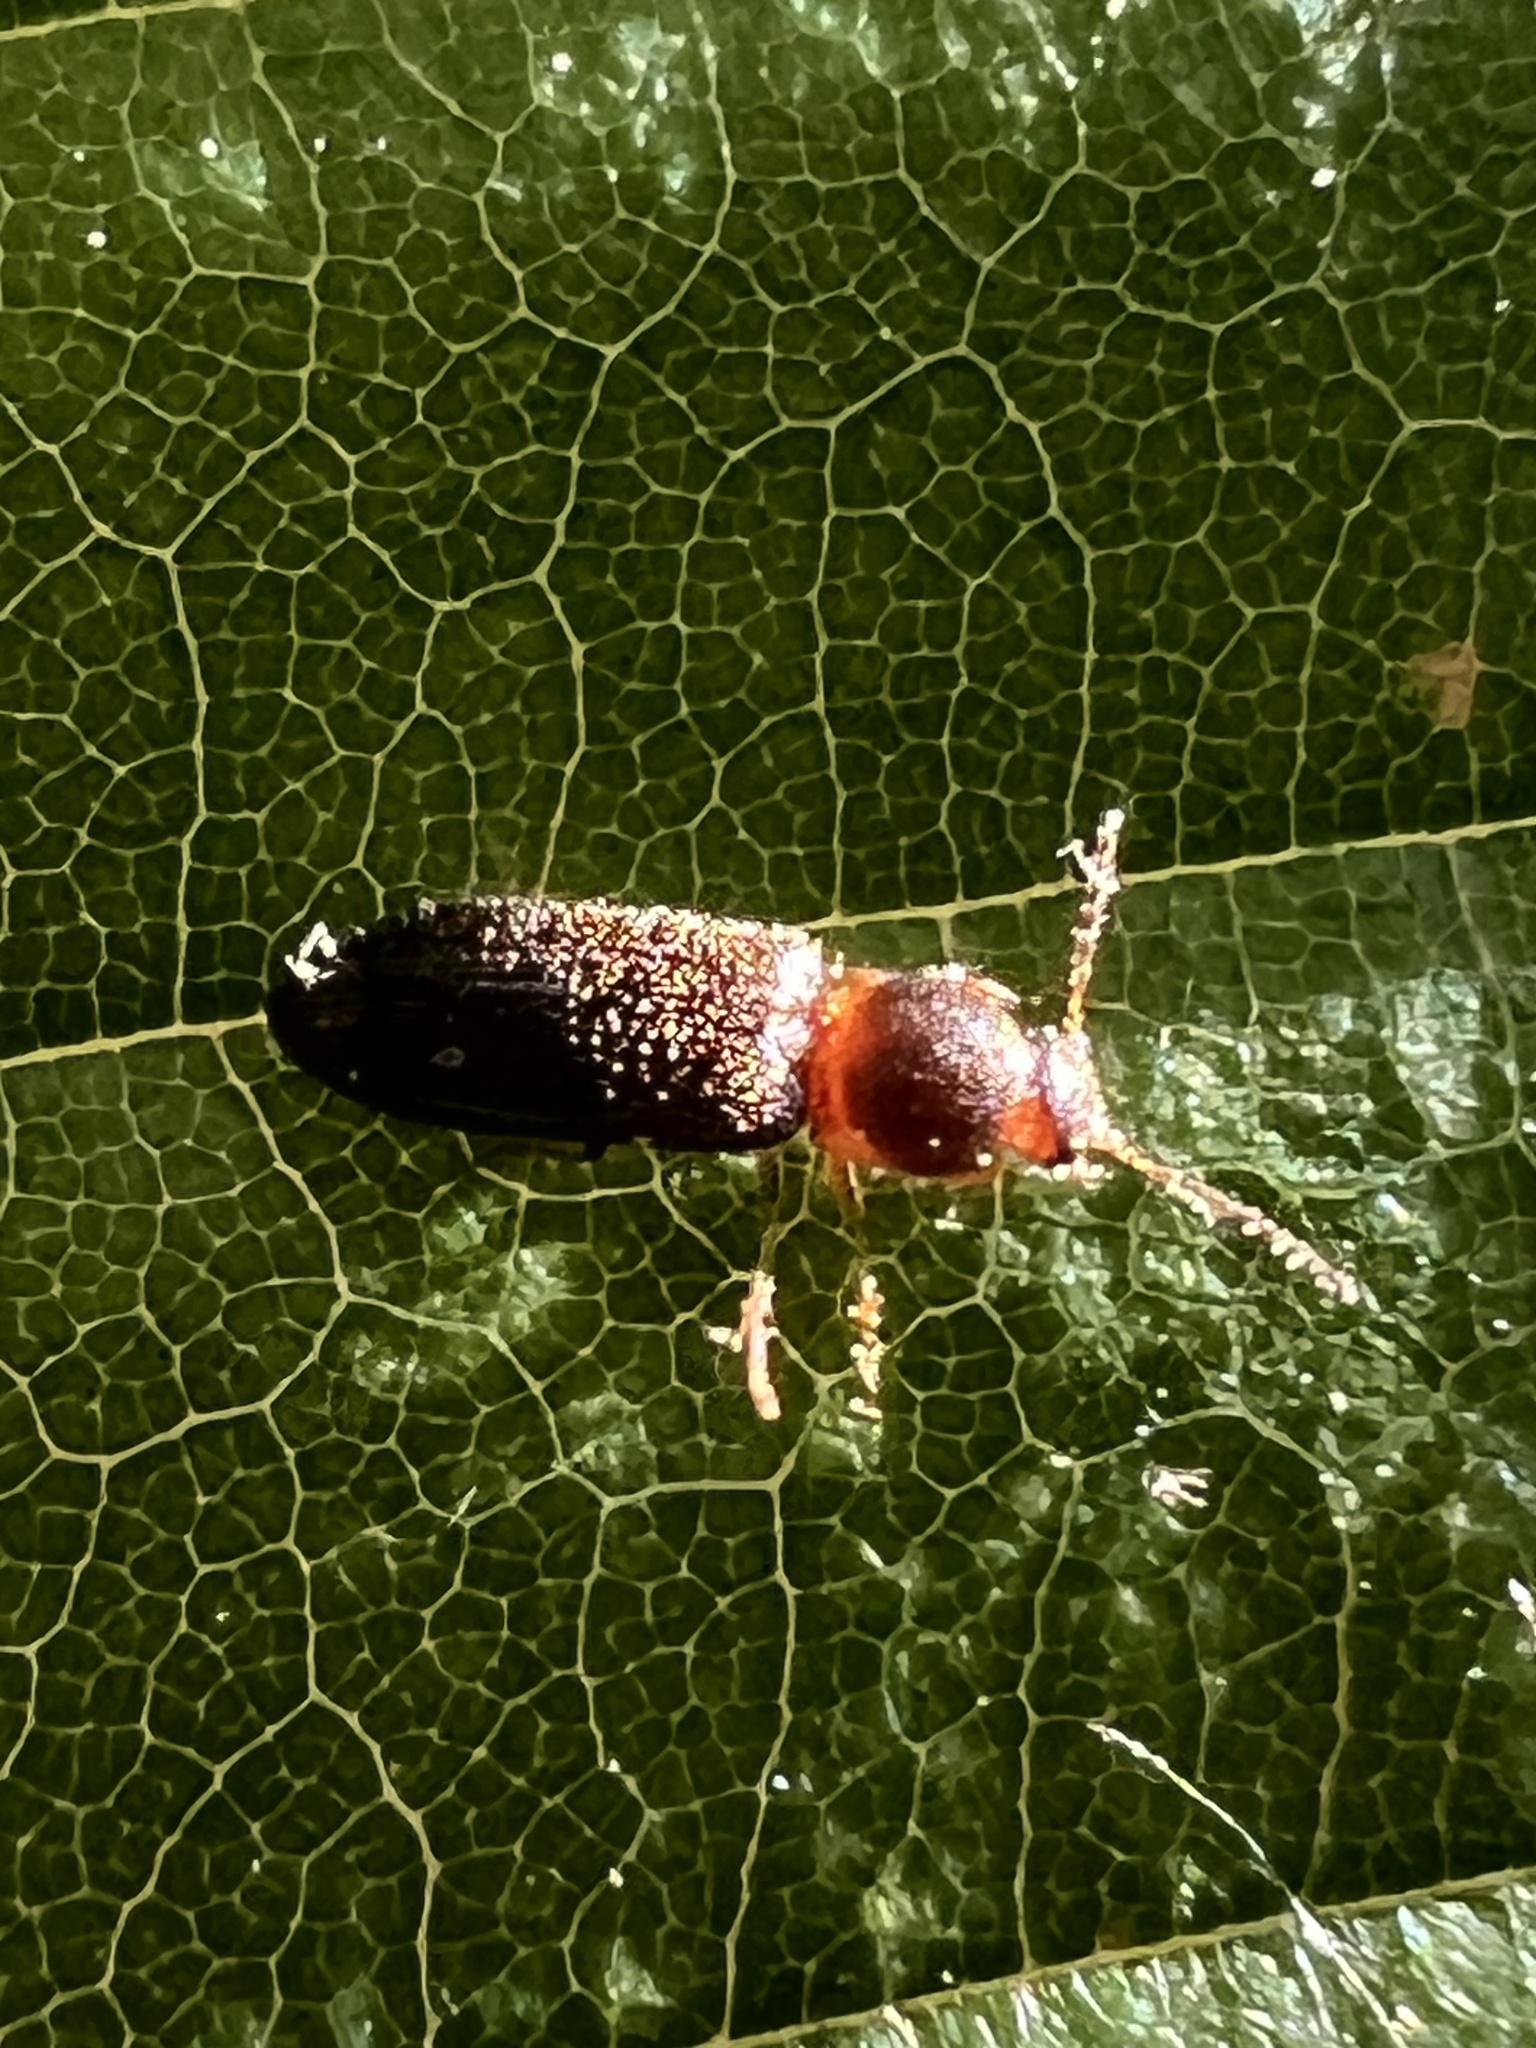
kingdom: Animalia
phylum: Arthropoda
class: Insecta
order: Coleoptera
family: Elateridae
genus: Tetralimonius
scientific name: Tetralimonius
